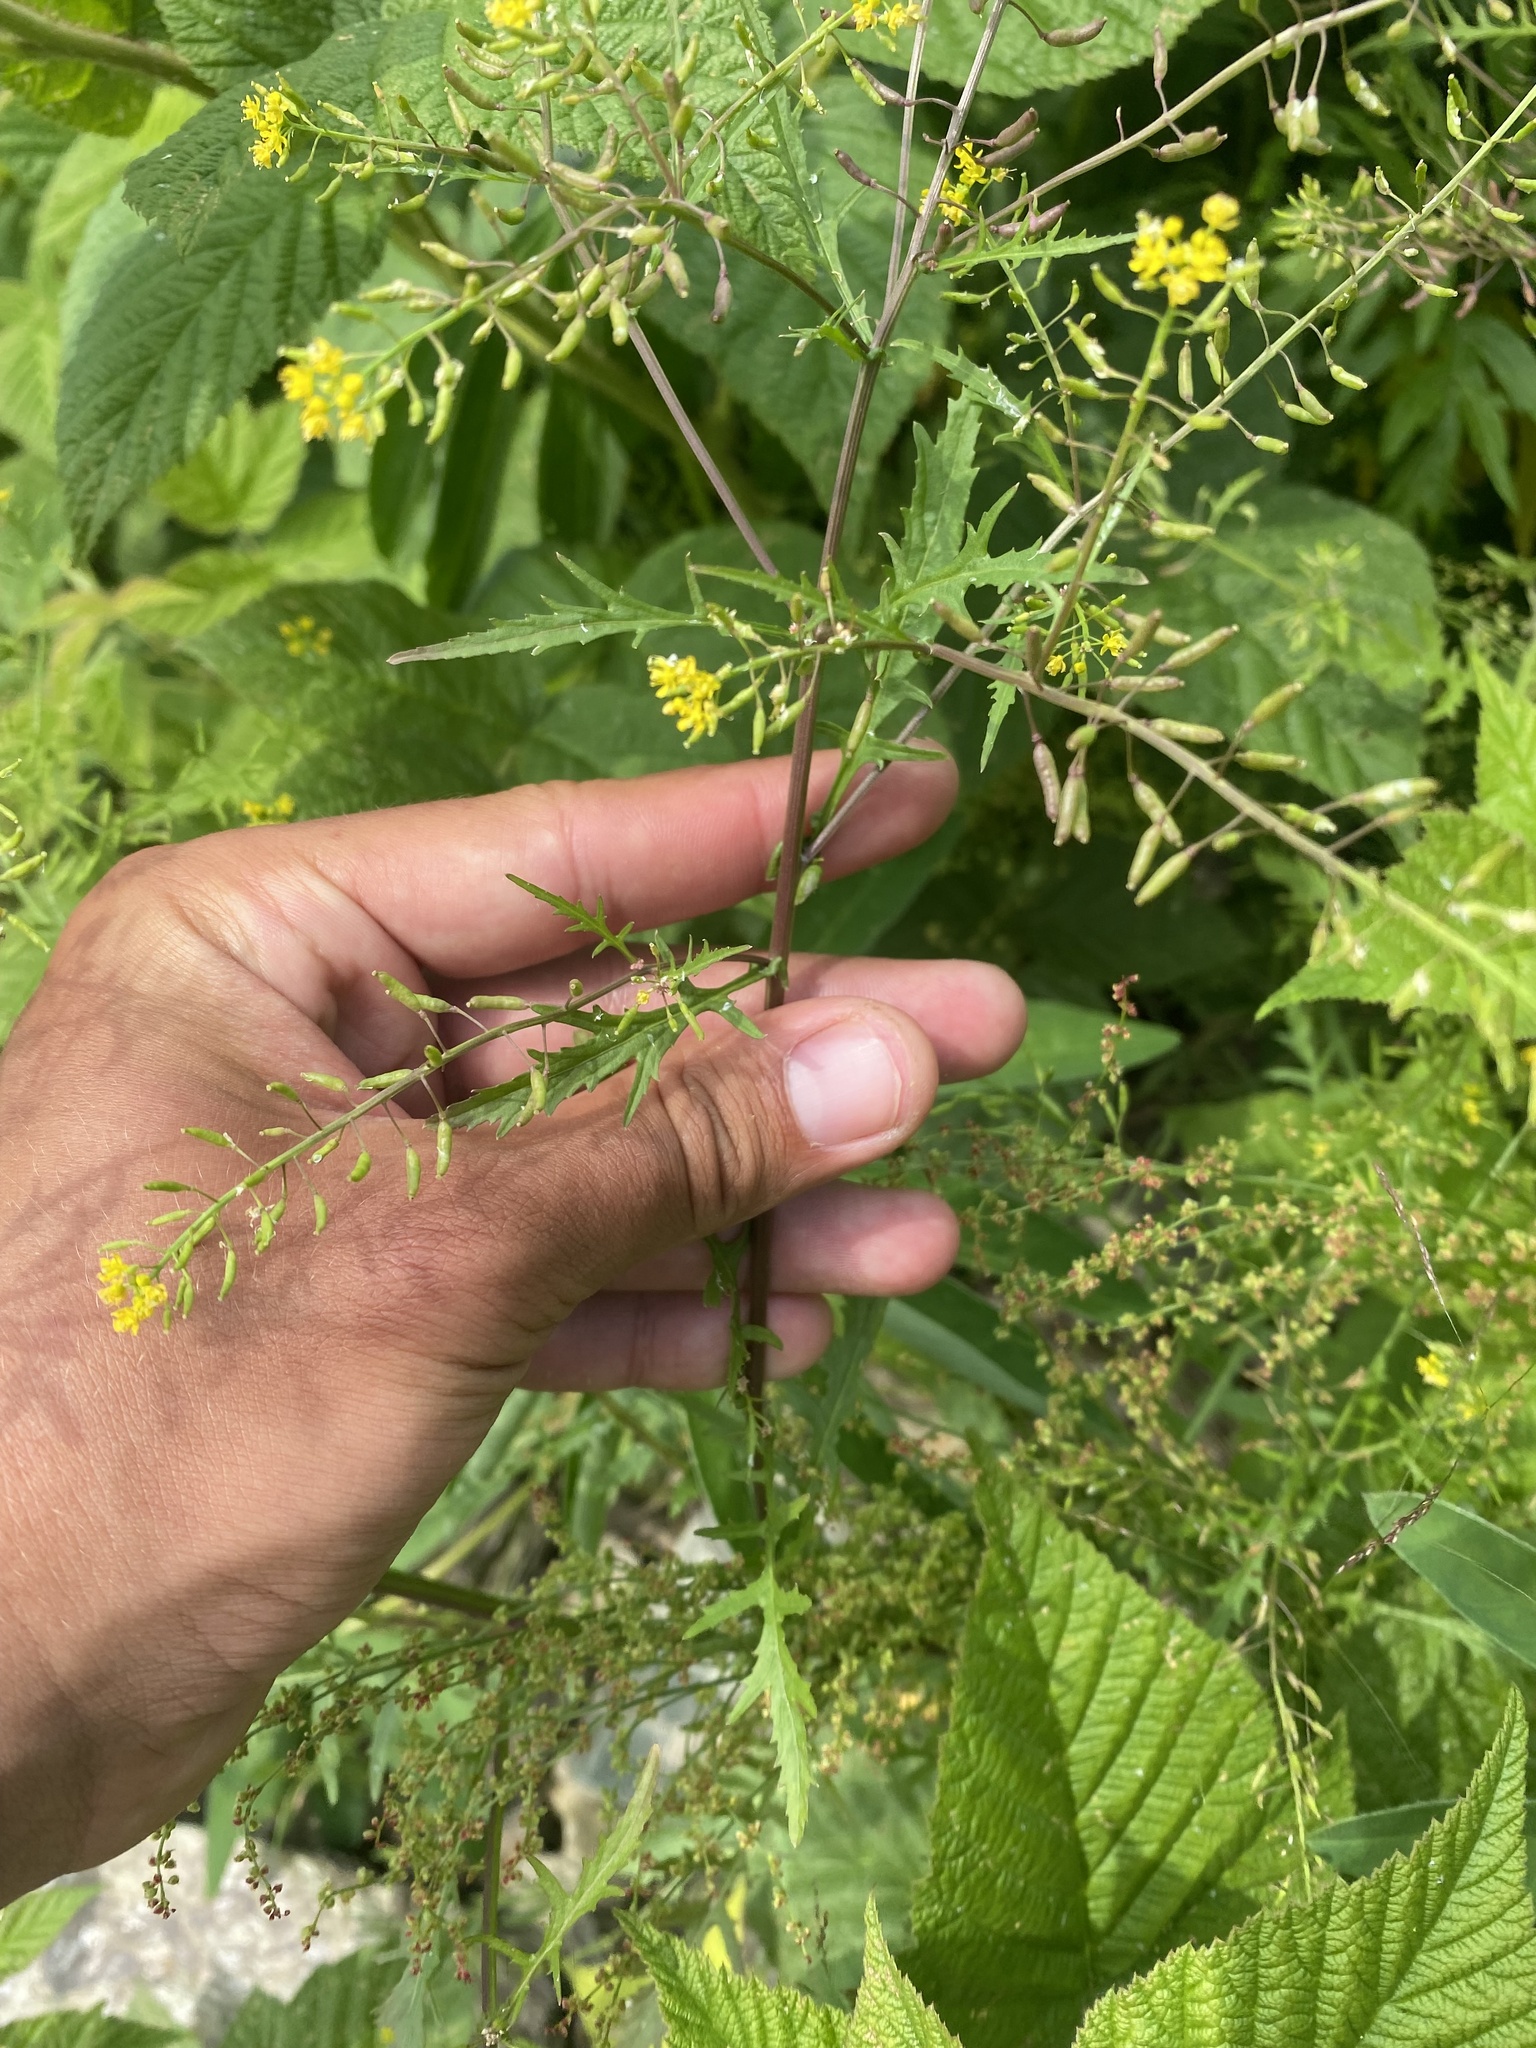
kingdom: Plantae
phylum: Tracheophyta
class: Magnoliopsida
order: Brassicales
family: Brassicaceae
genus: Rorippa
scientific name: Rorippa palustris
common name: Marsh yellow-cress
